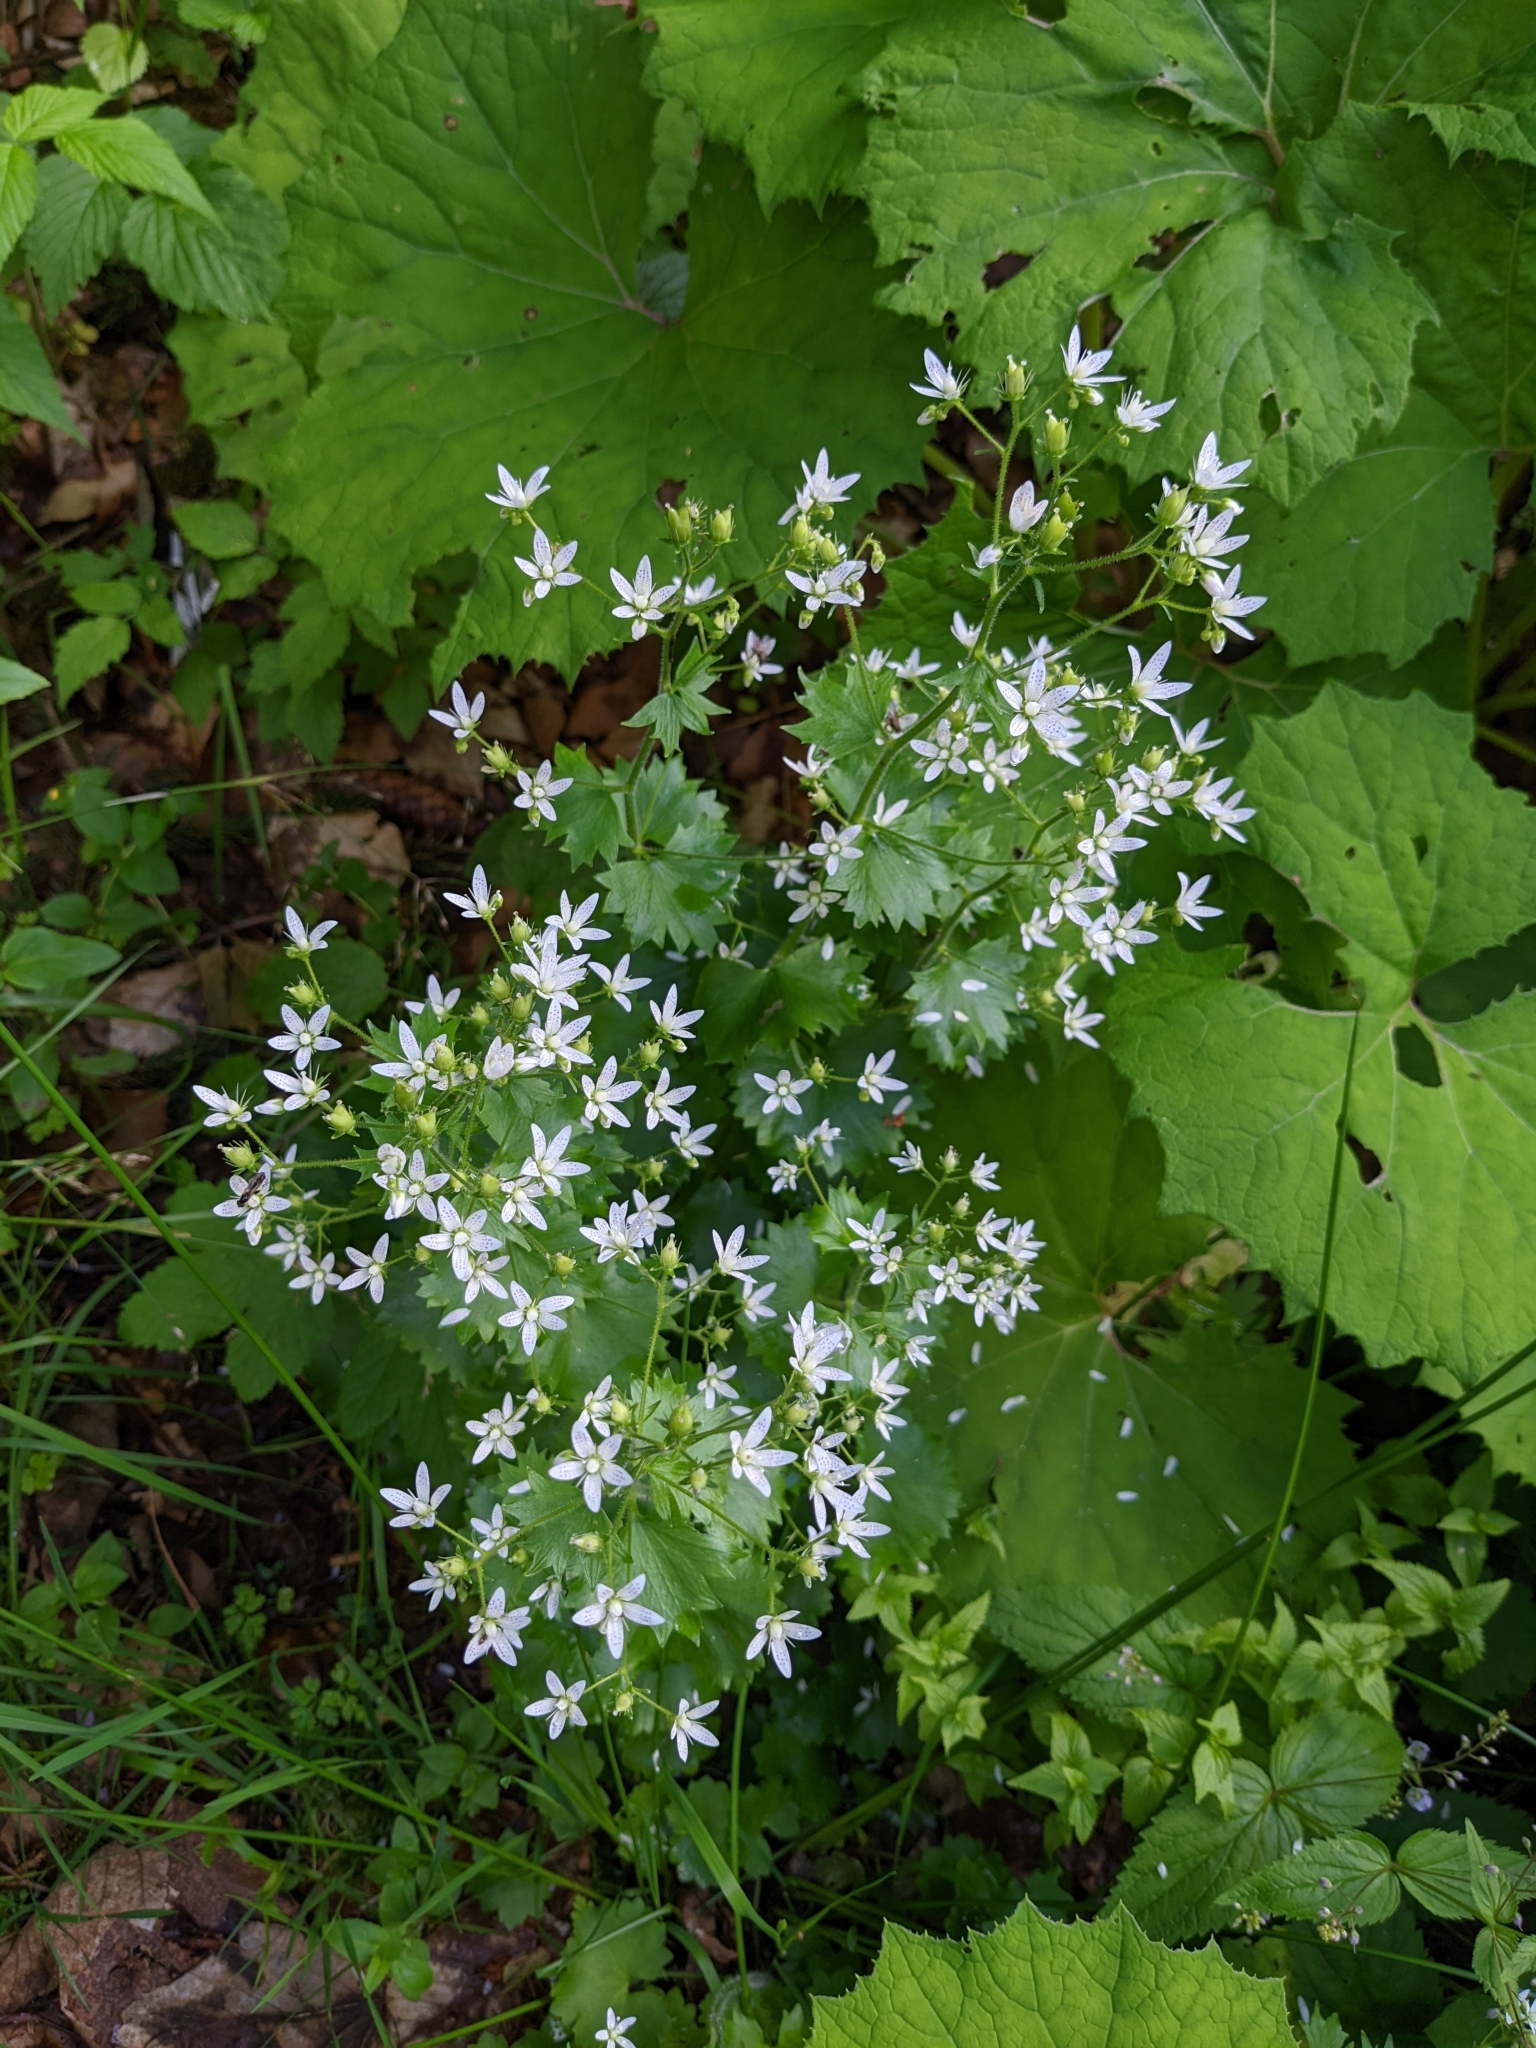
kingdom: Plantae
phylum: Tracheophyta
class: Magnoliopsida
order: Saxifragales
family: Saxifragaceae
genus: Saxifraga
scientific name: Saxifraga rotundifolia
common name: Round-leaved saxifrage
